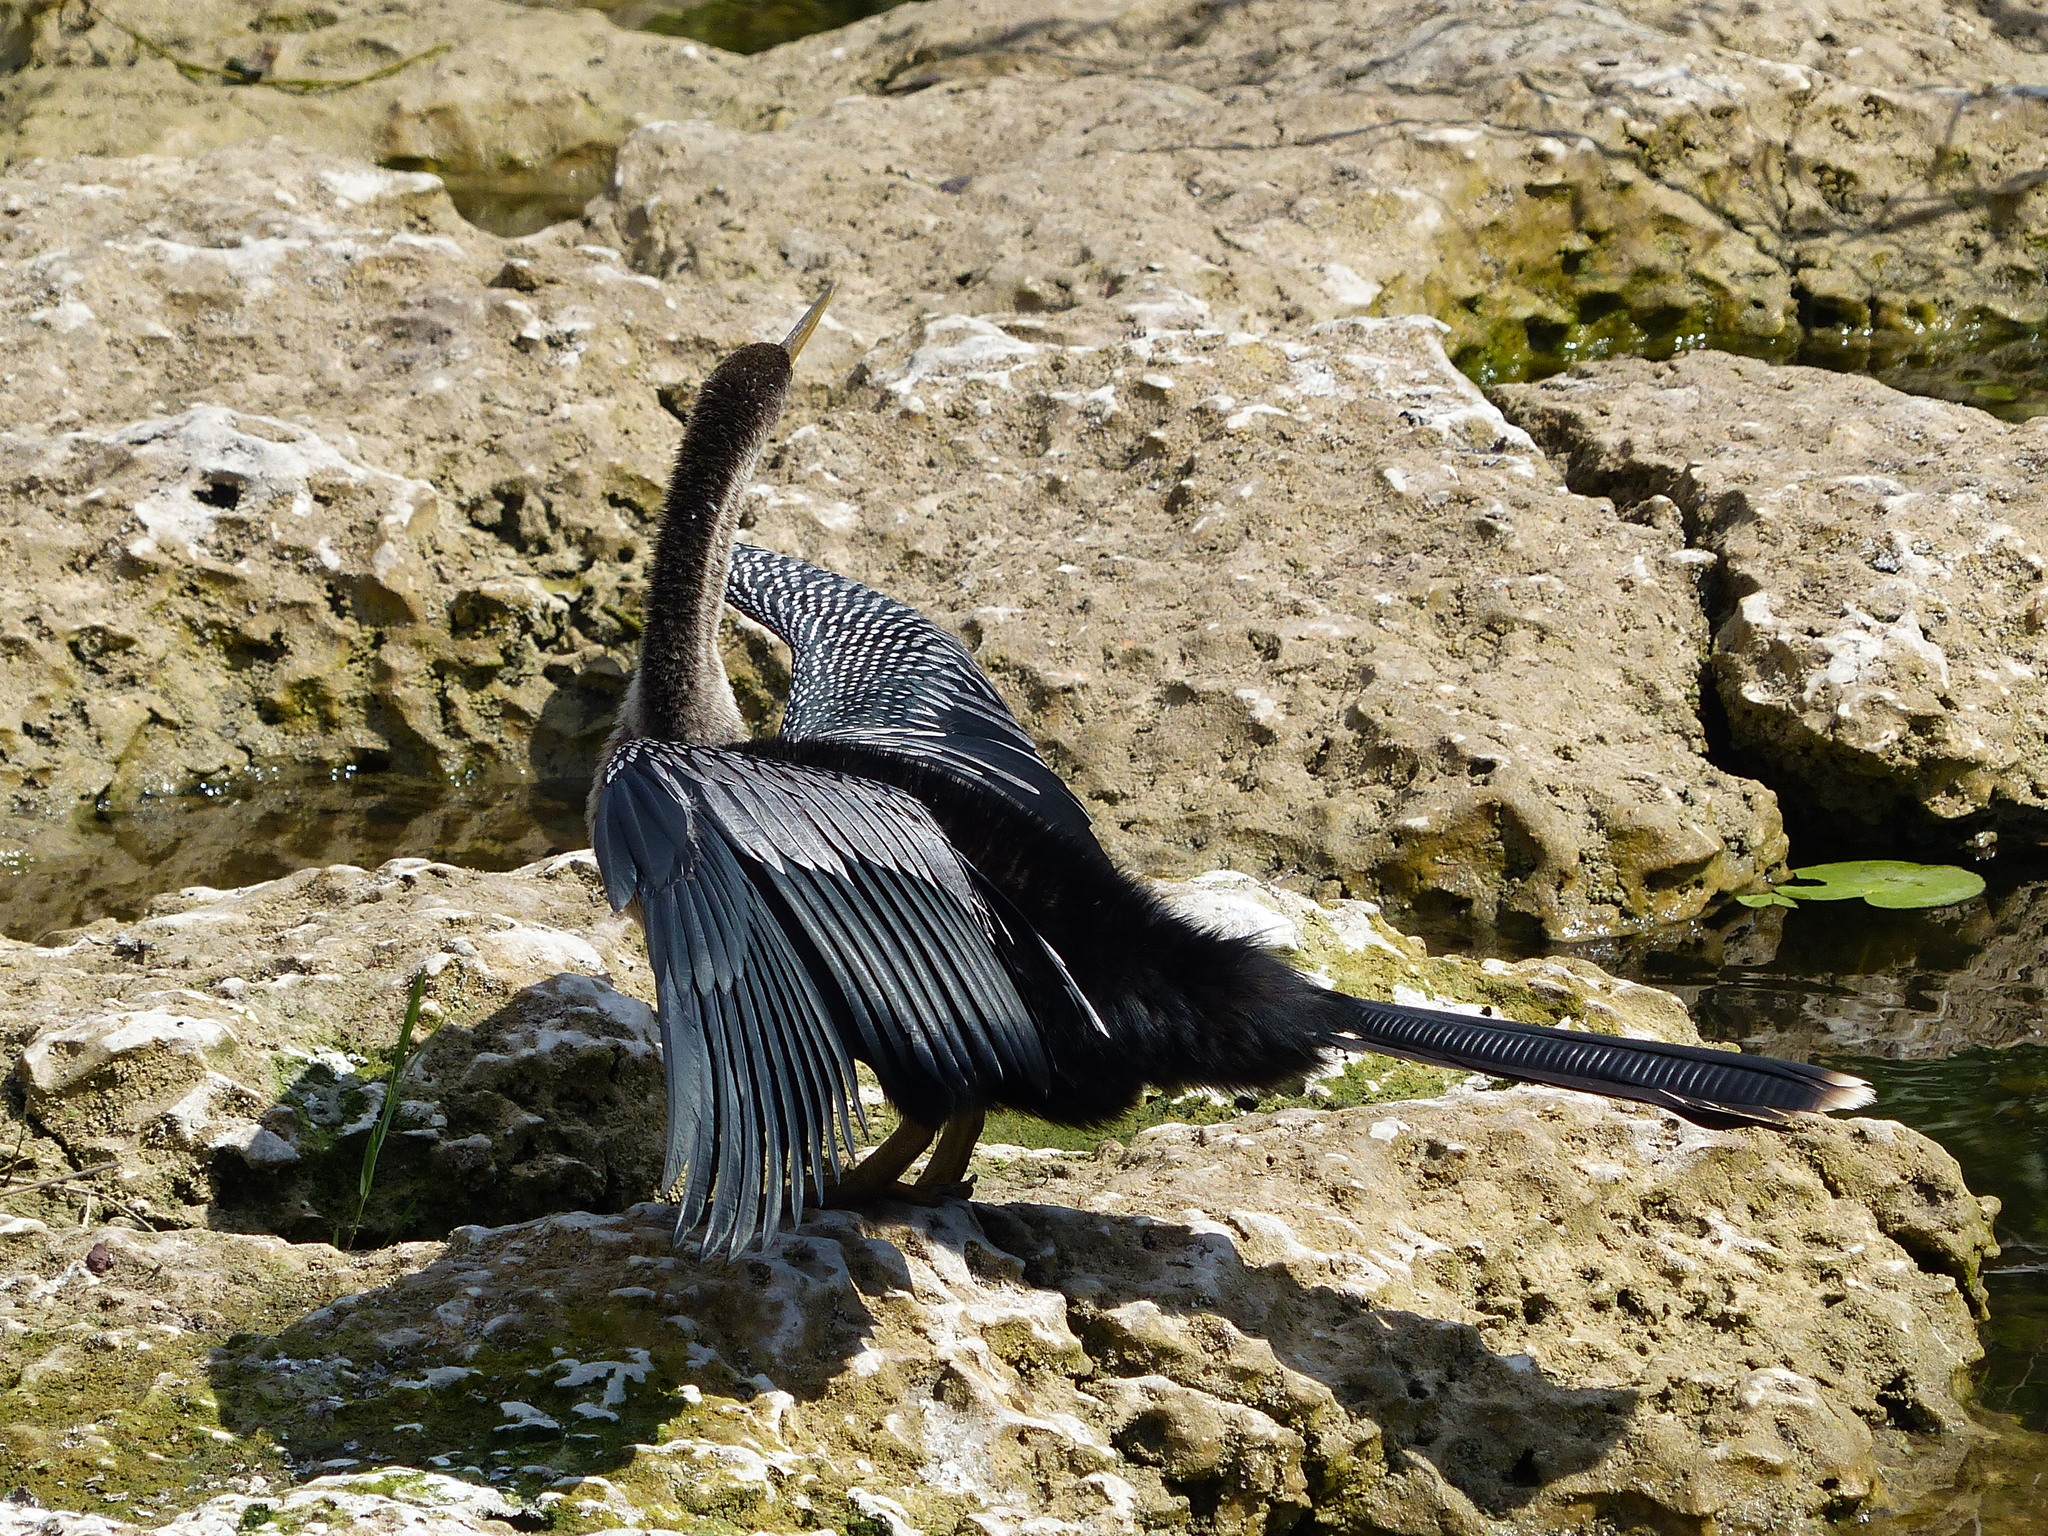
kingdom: Animalia
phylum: Chordata
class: Aves
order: Suliformes
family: Anhingidae
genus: Anhinga
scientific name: Anhinga anhinga
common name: Anhinga
